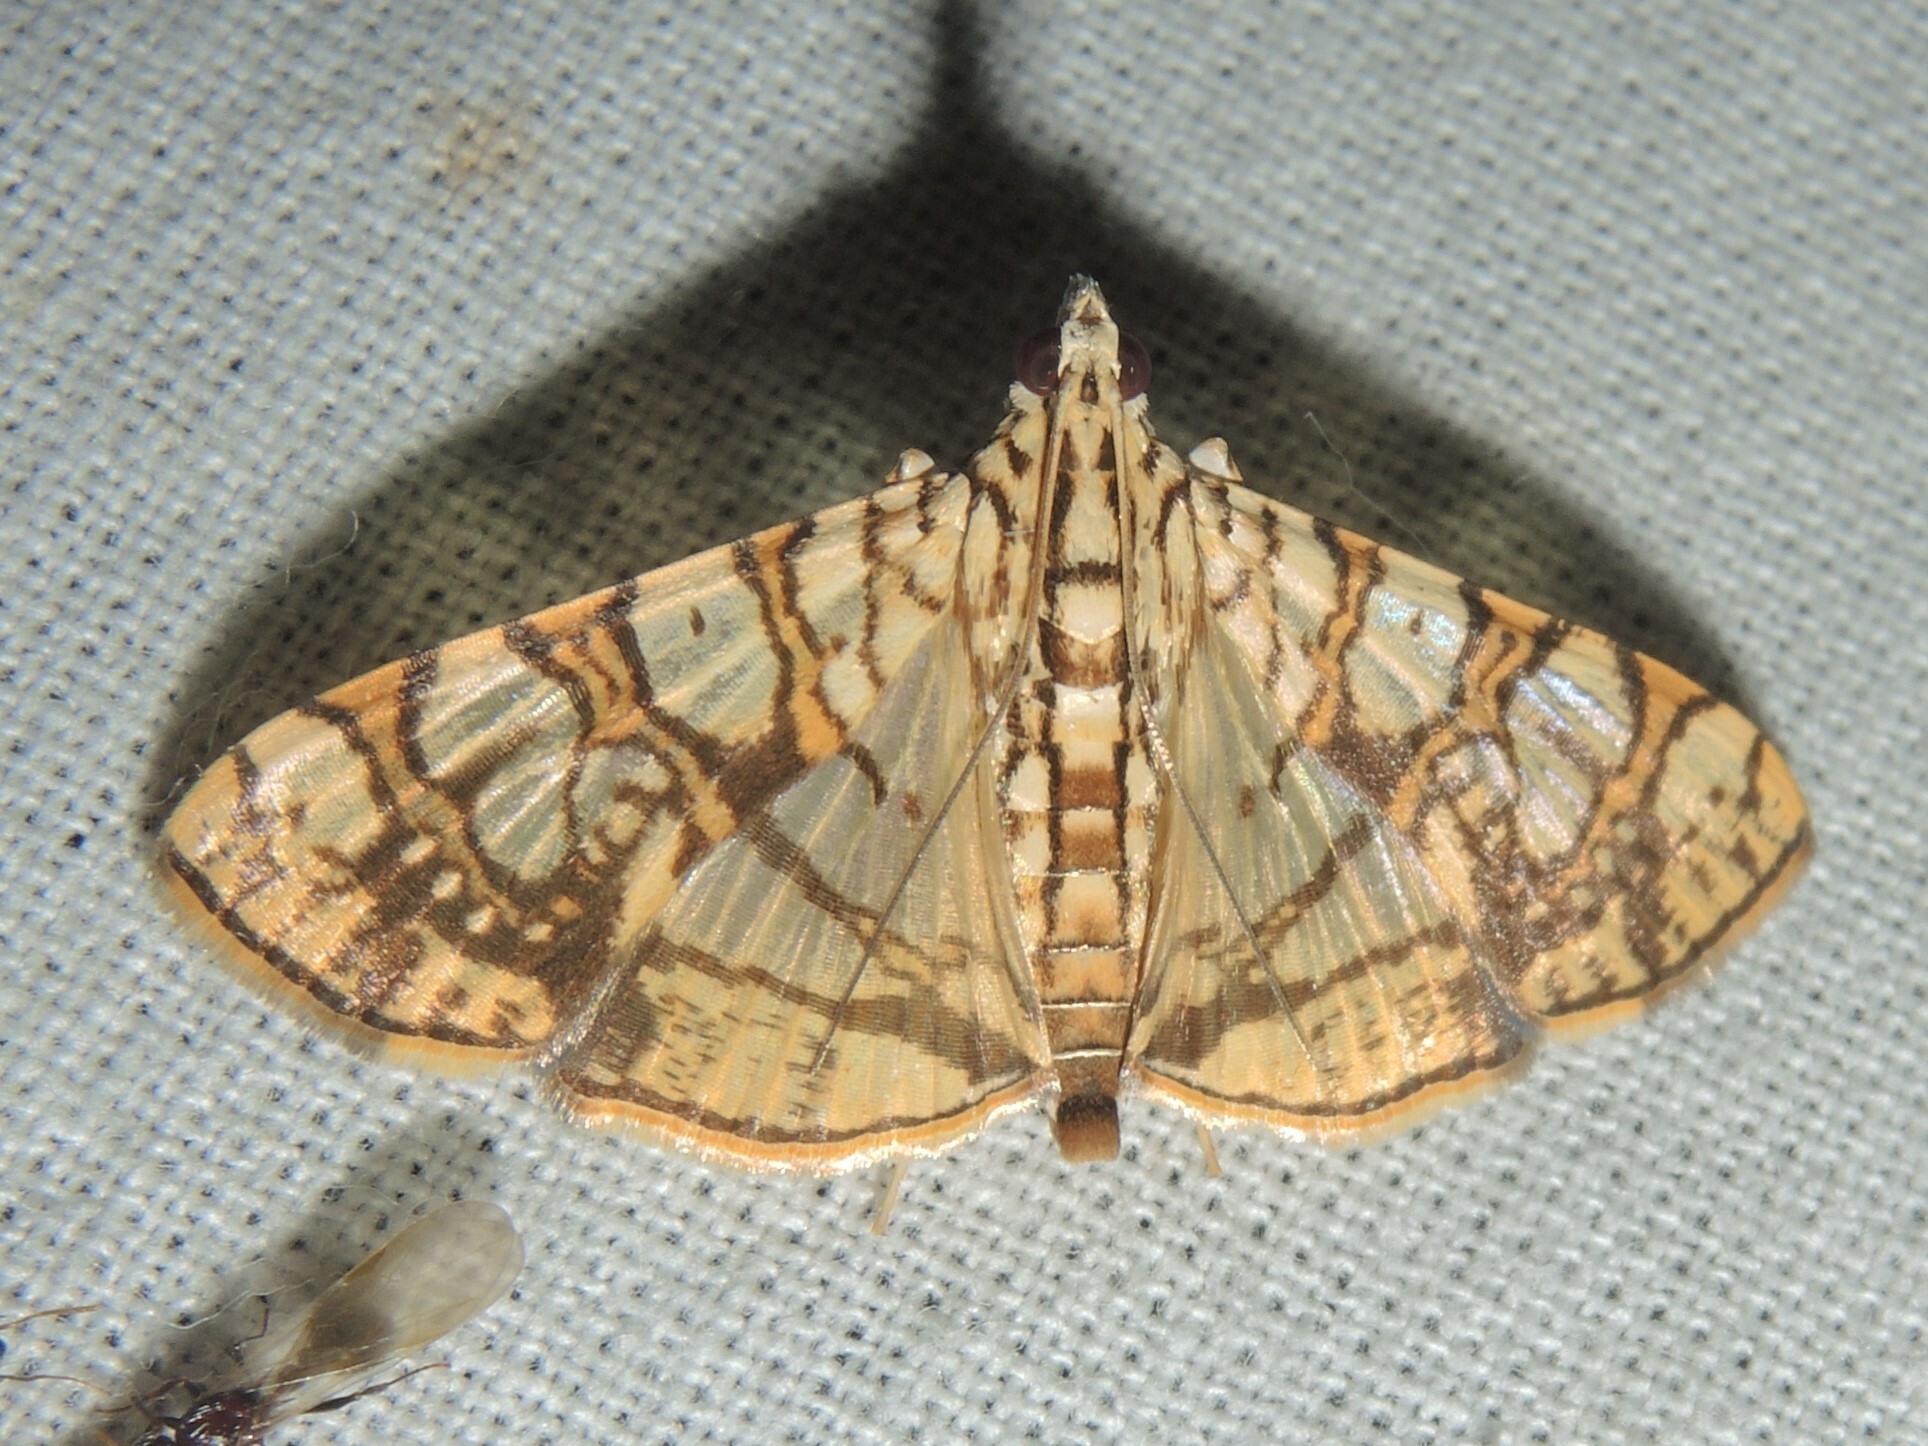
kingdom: Animalia
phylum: Arthropoda
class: Insecta
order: Lepidoptera
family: Crambidae
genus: Glyphodes
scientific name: Glyphodes caesalis
